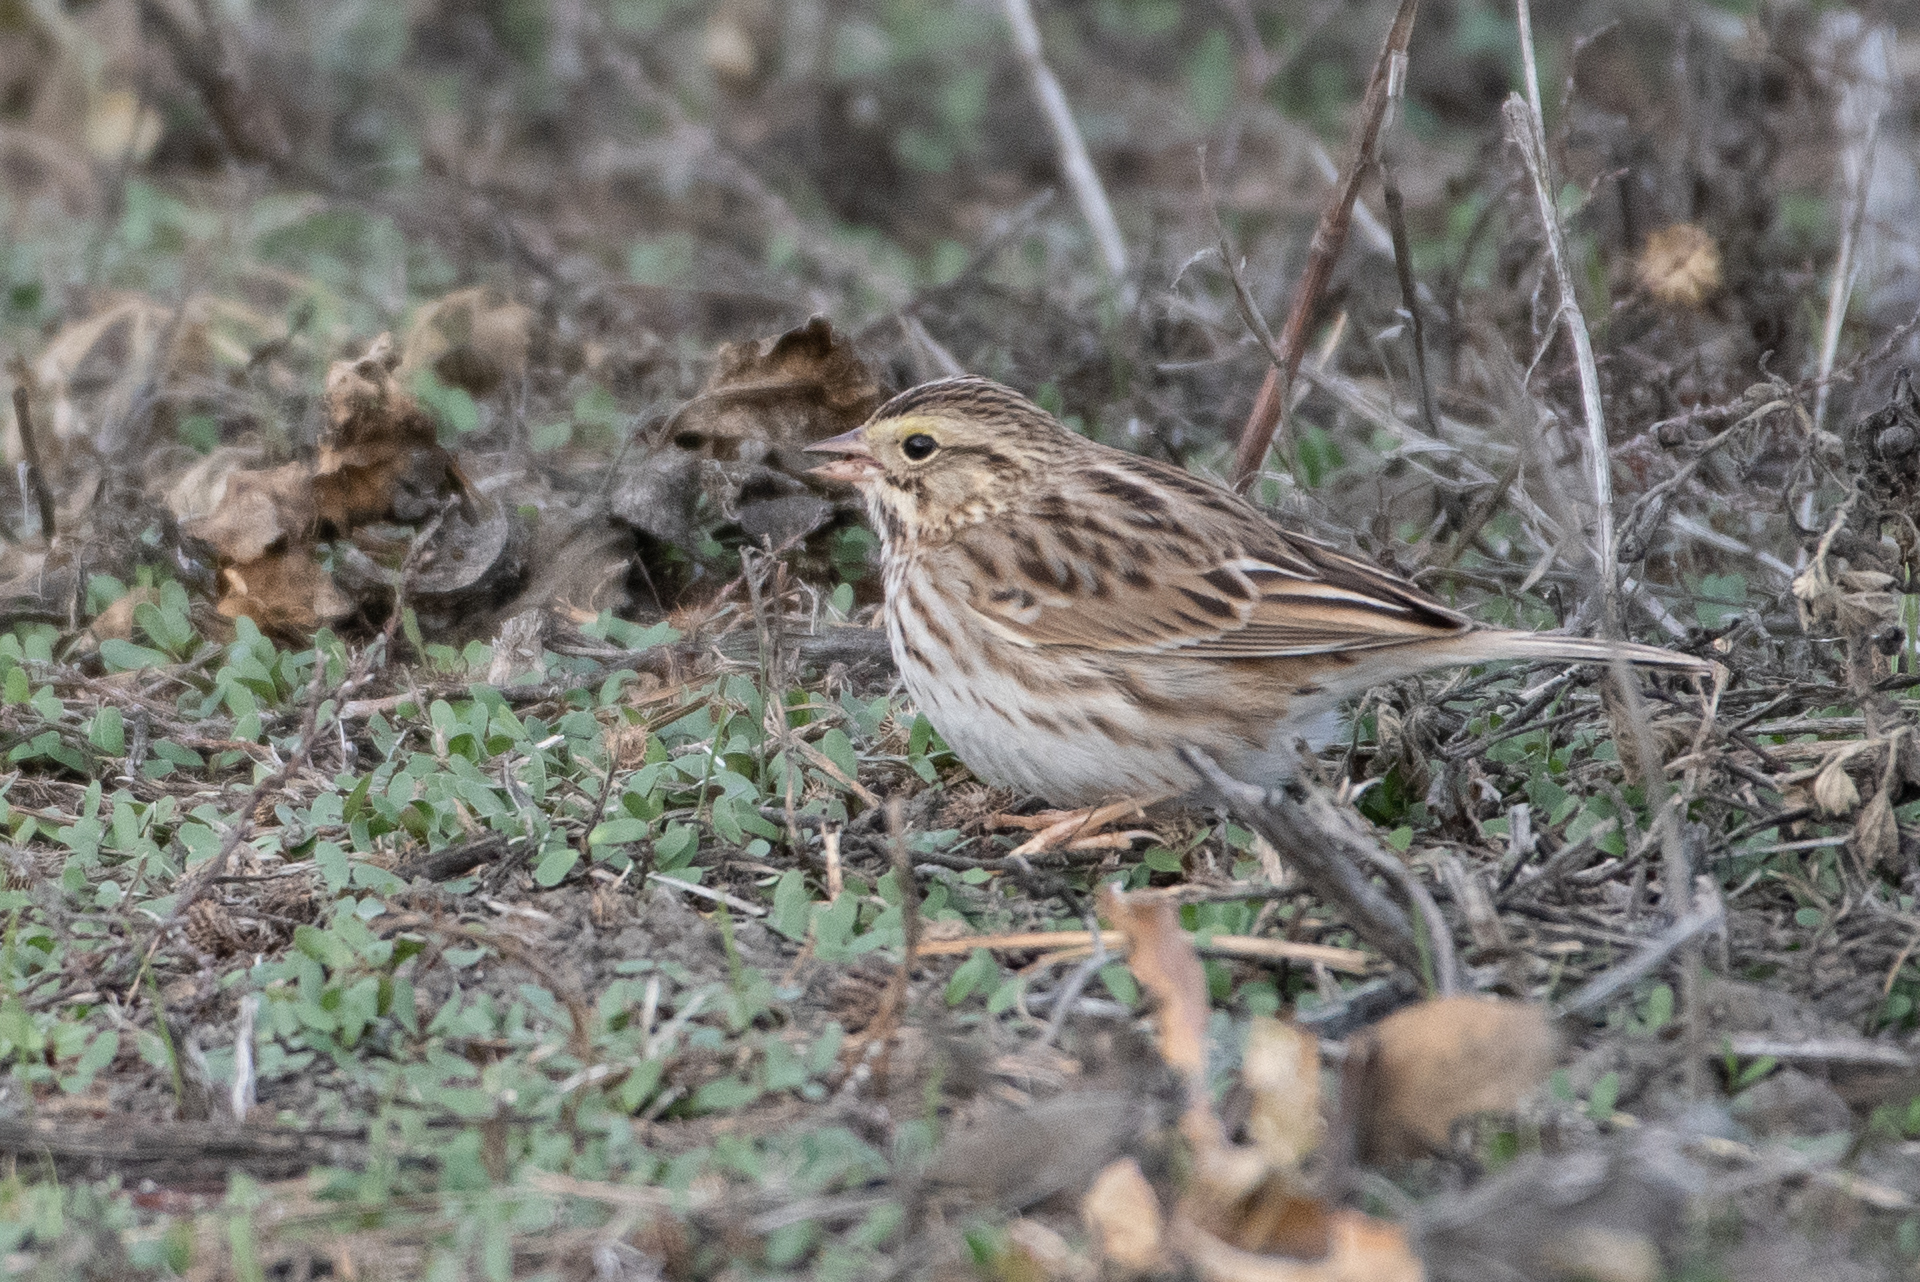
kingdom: Animalia
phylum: Chordata
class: Aves
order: Passeriformes
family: Passerellidae
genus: Passerculus
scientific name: Passerculus sandwichensis
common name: Savannah sparrow
